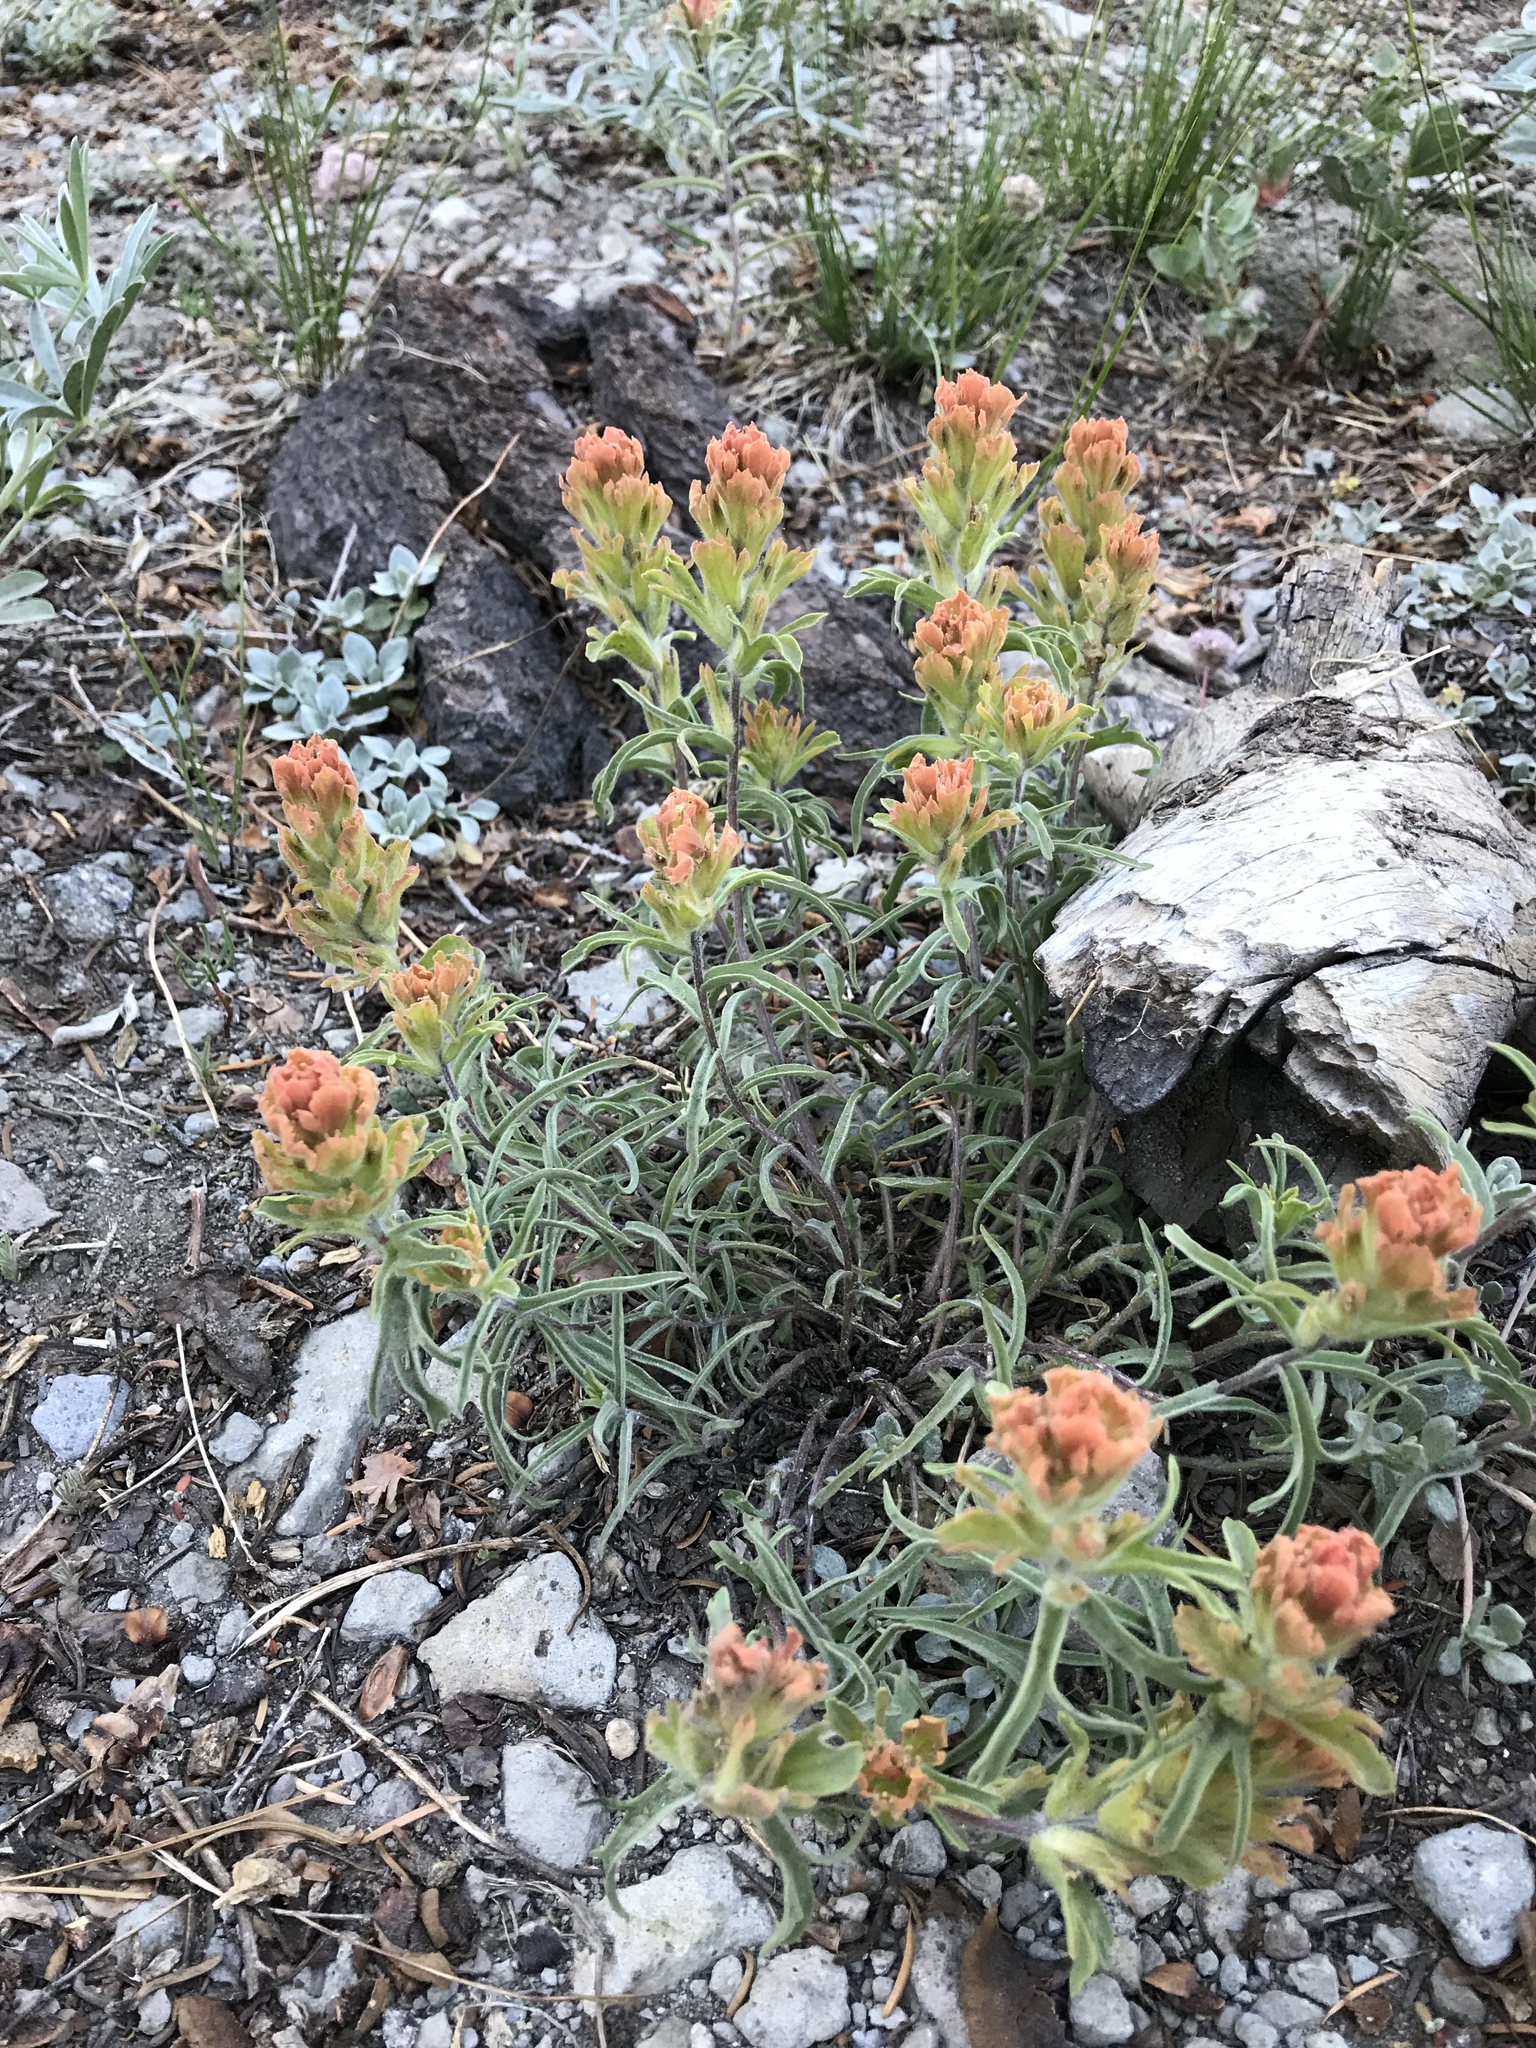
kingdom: Plantae
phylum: Tracheophyta
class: Magnoliopsida
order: Lamiales
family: Orobanchaceae
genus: Castilleja
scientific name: Castilleja arachnoidea
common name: Cobwebby indian paintbrush
